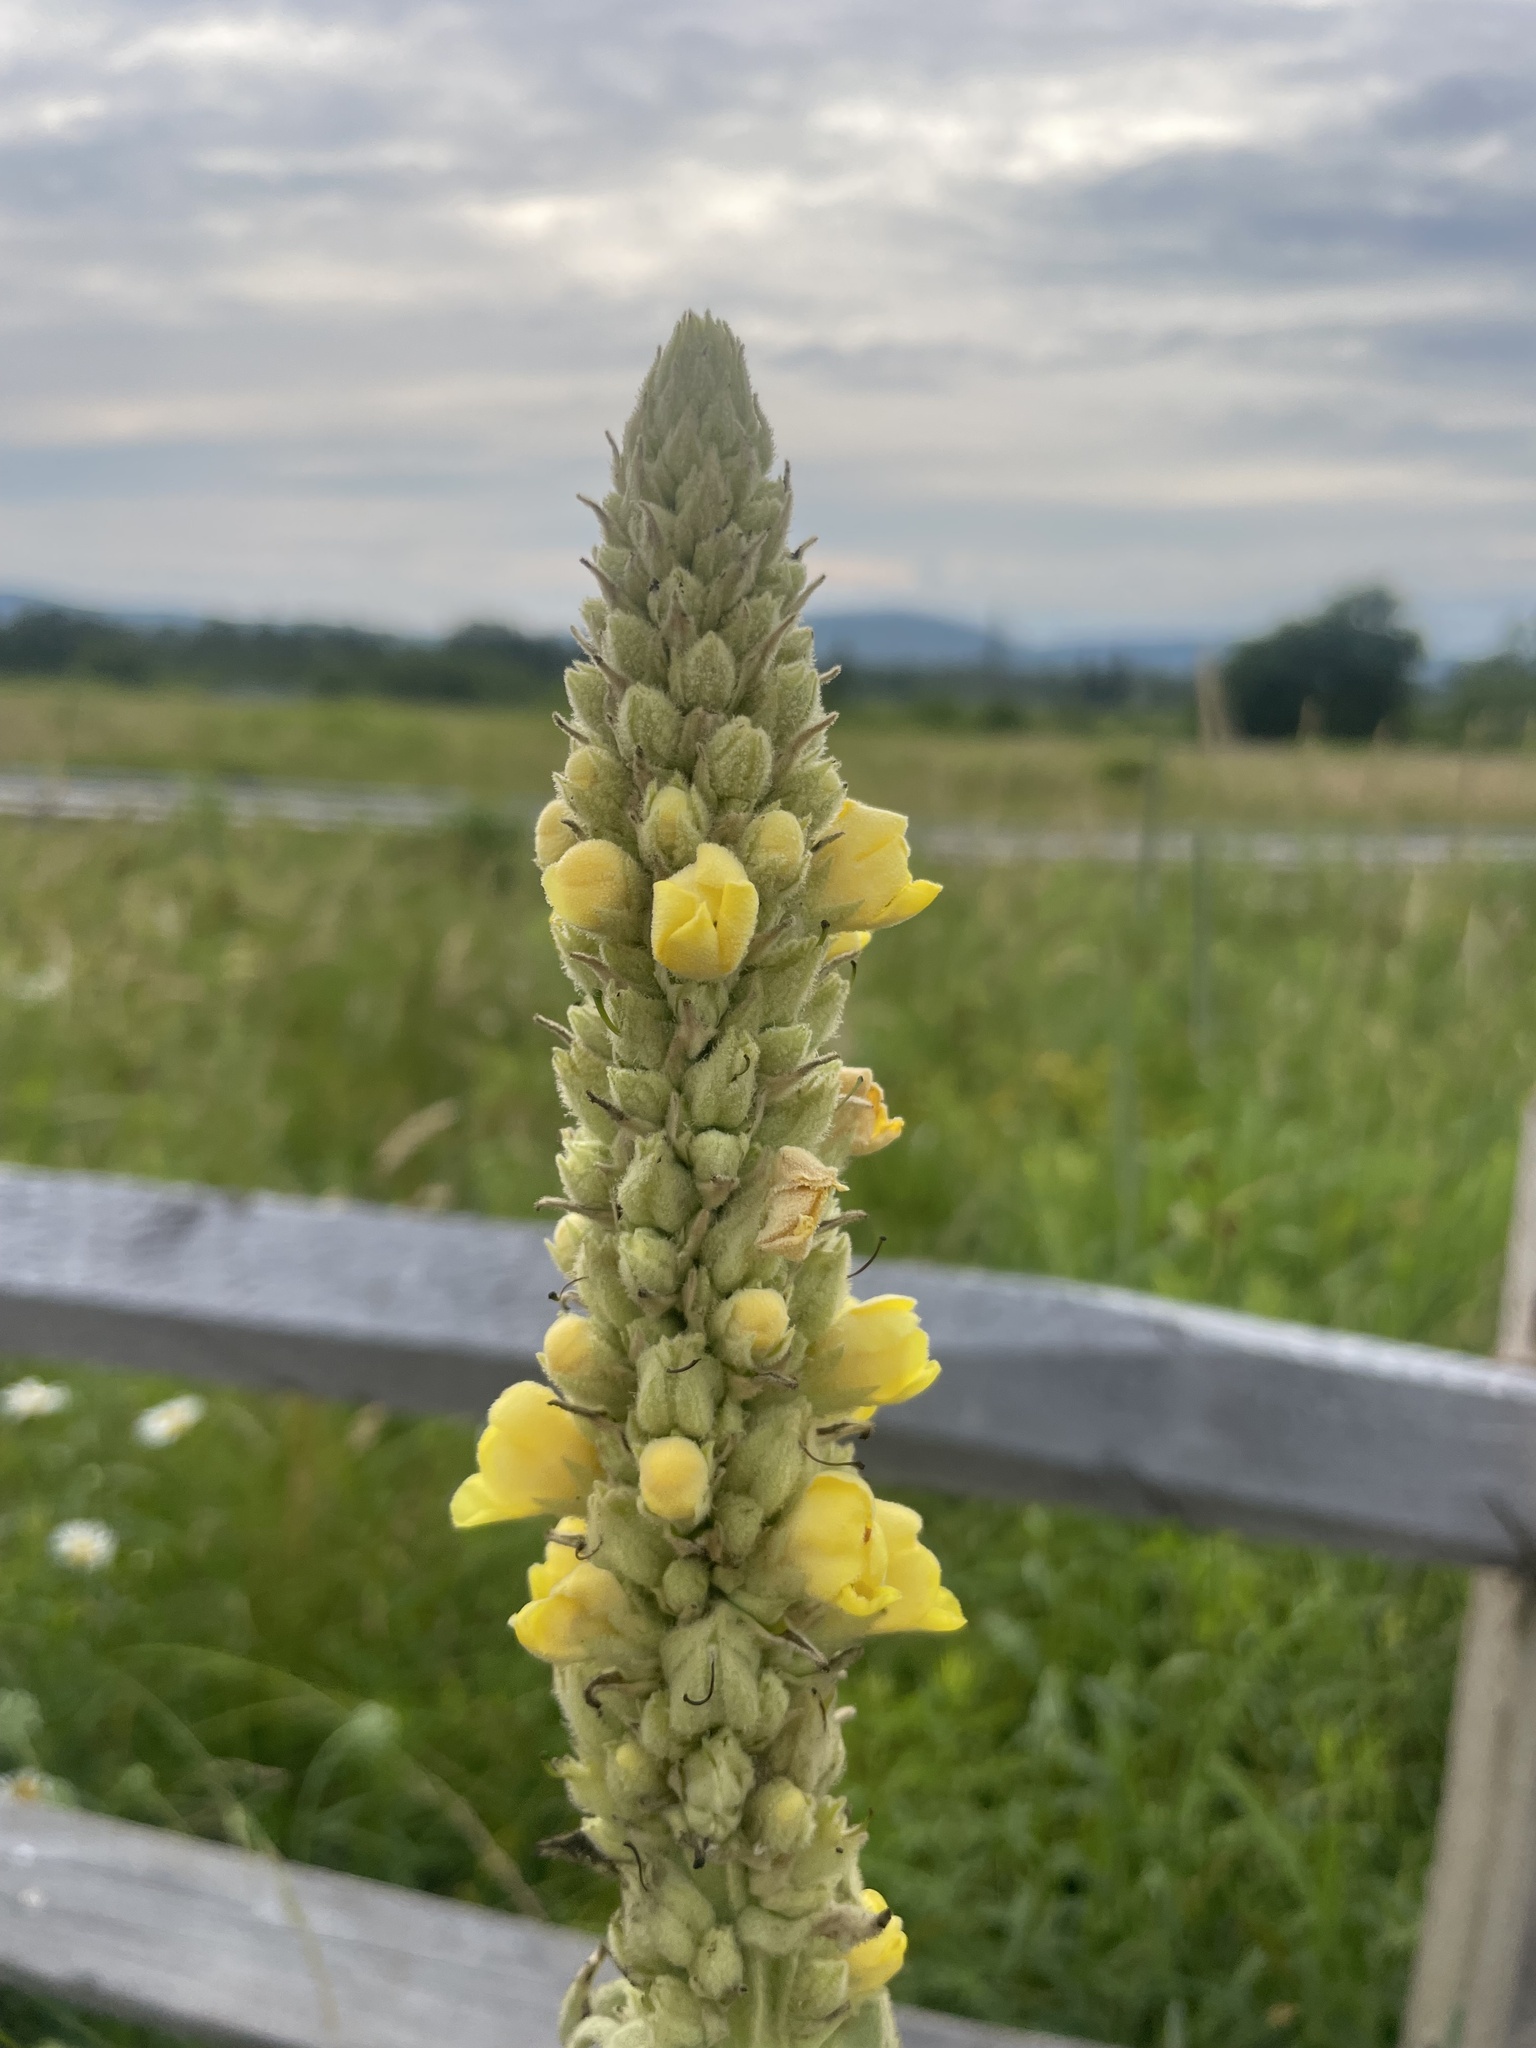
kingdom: Plantae
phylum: Tracheophyta
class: Magnoliopsida
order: Lamiales
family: Scrophulariaceae
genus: Verbascum
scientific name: Verbascum thapsus
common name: Common mullein
